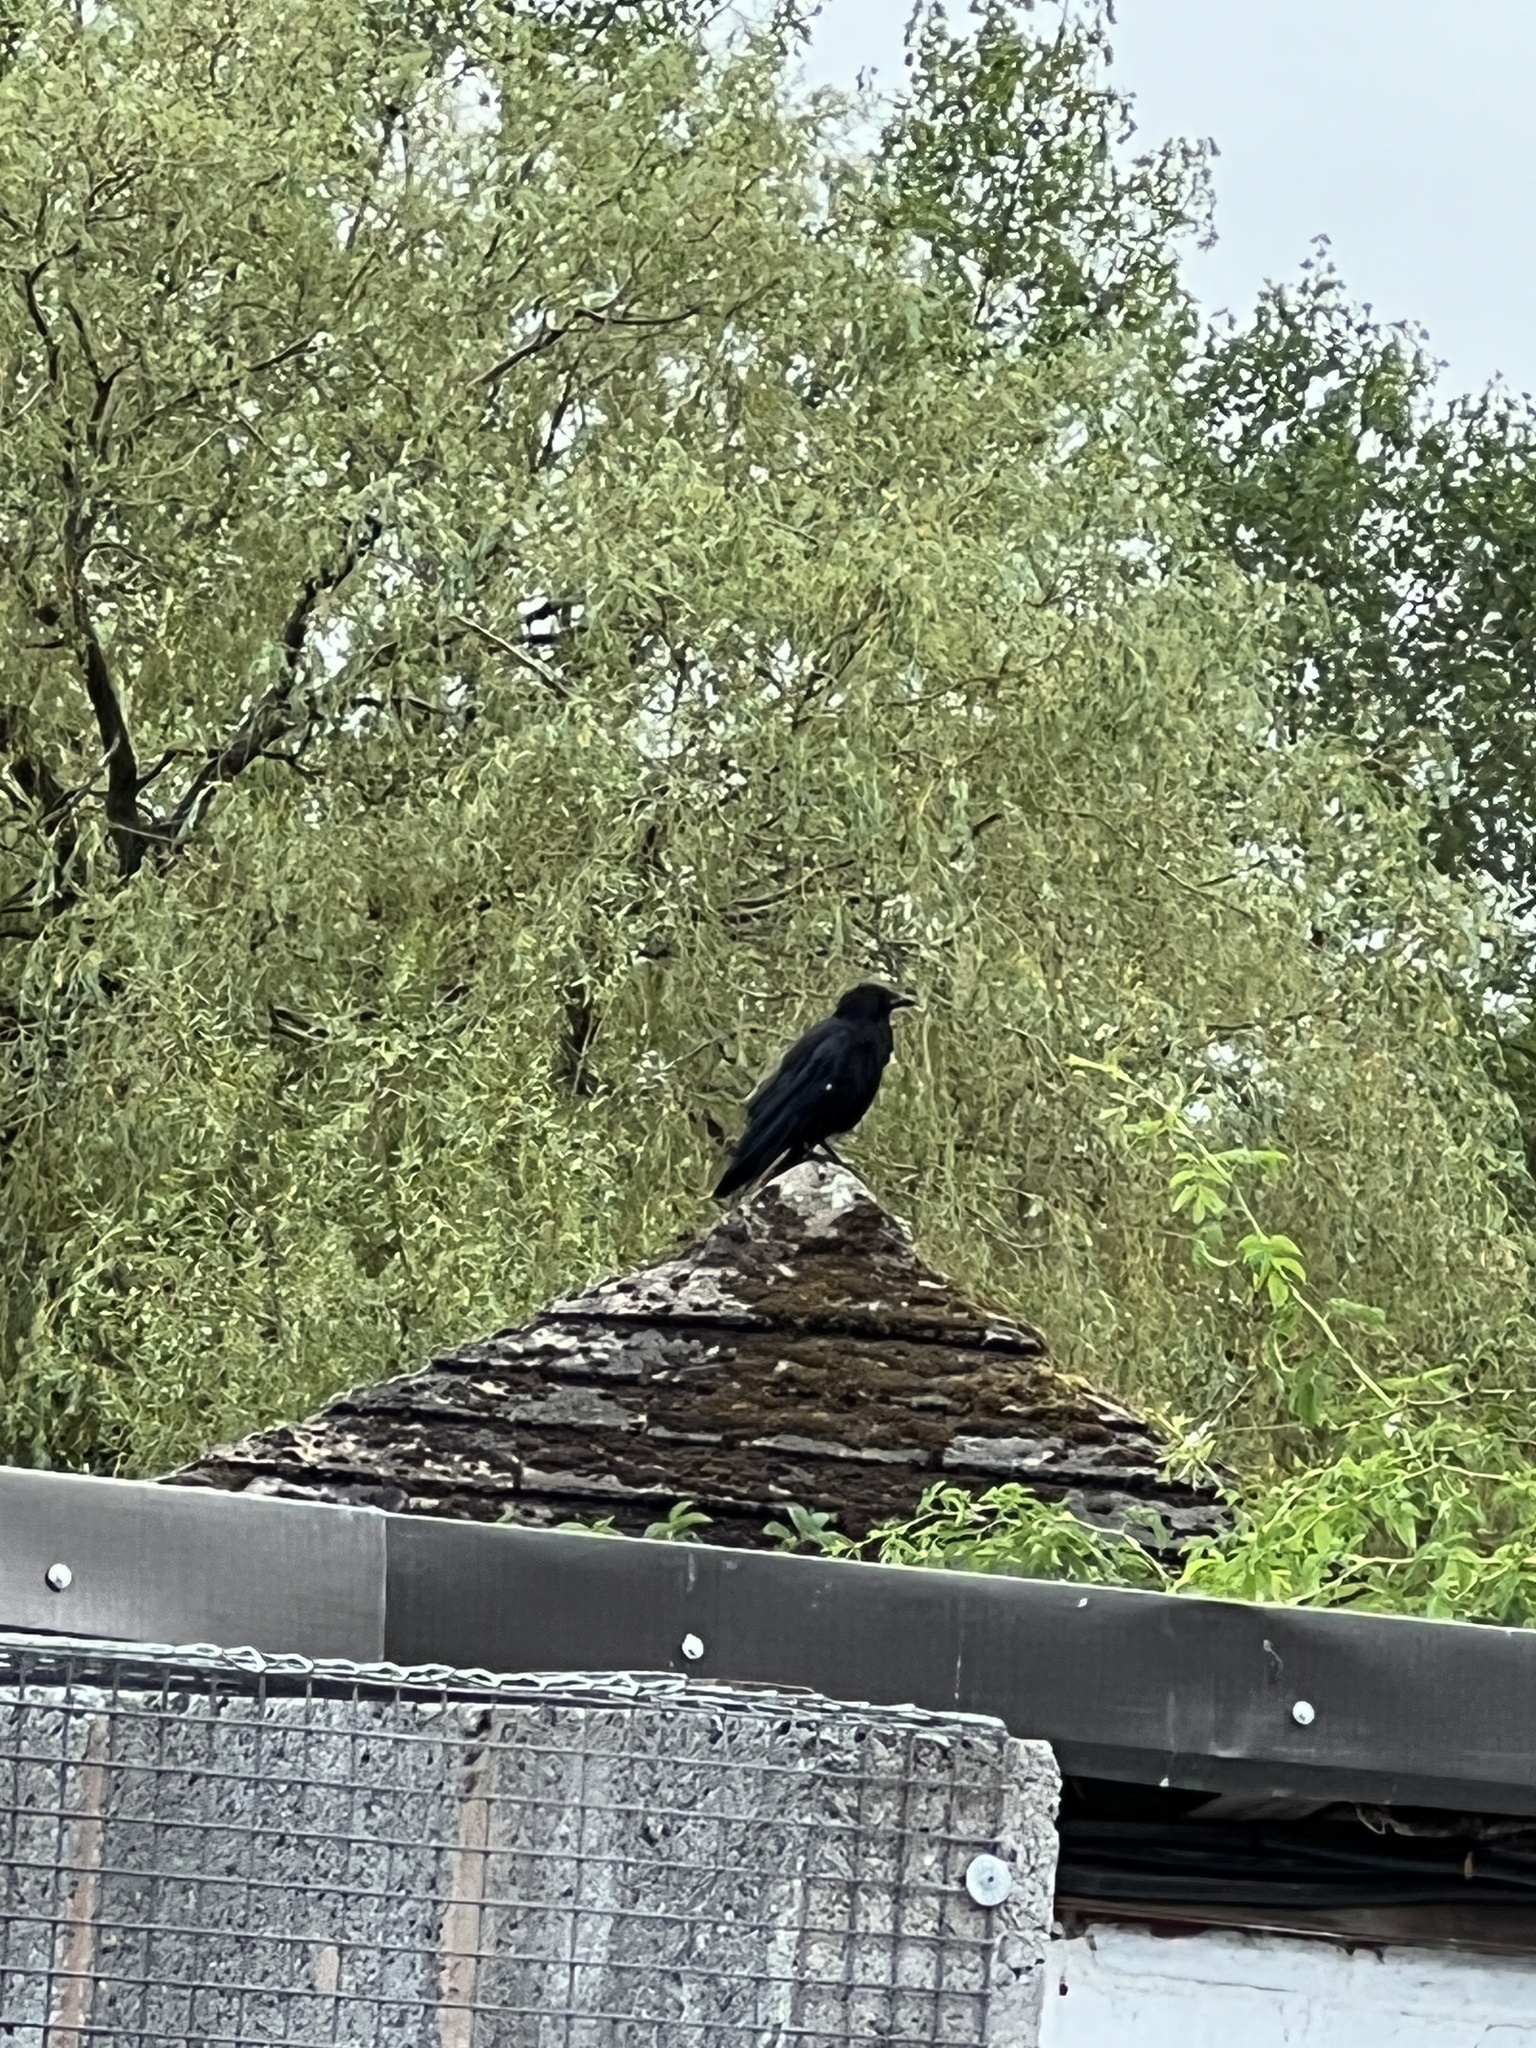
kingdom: Animalia
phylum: Chordata
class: Aves
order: Passeriformes
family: Corvidae
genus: Corvus
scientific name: Corvus corone
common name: Carrion crow
